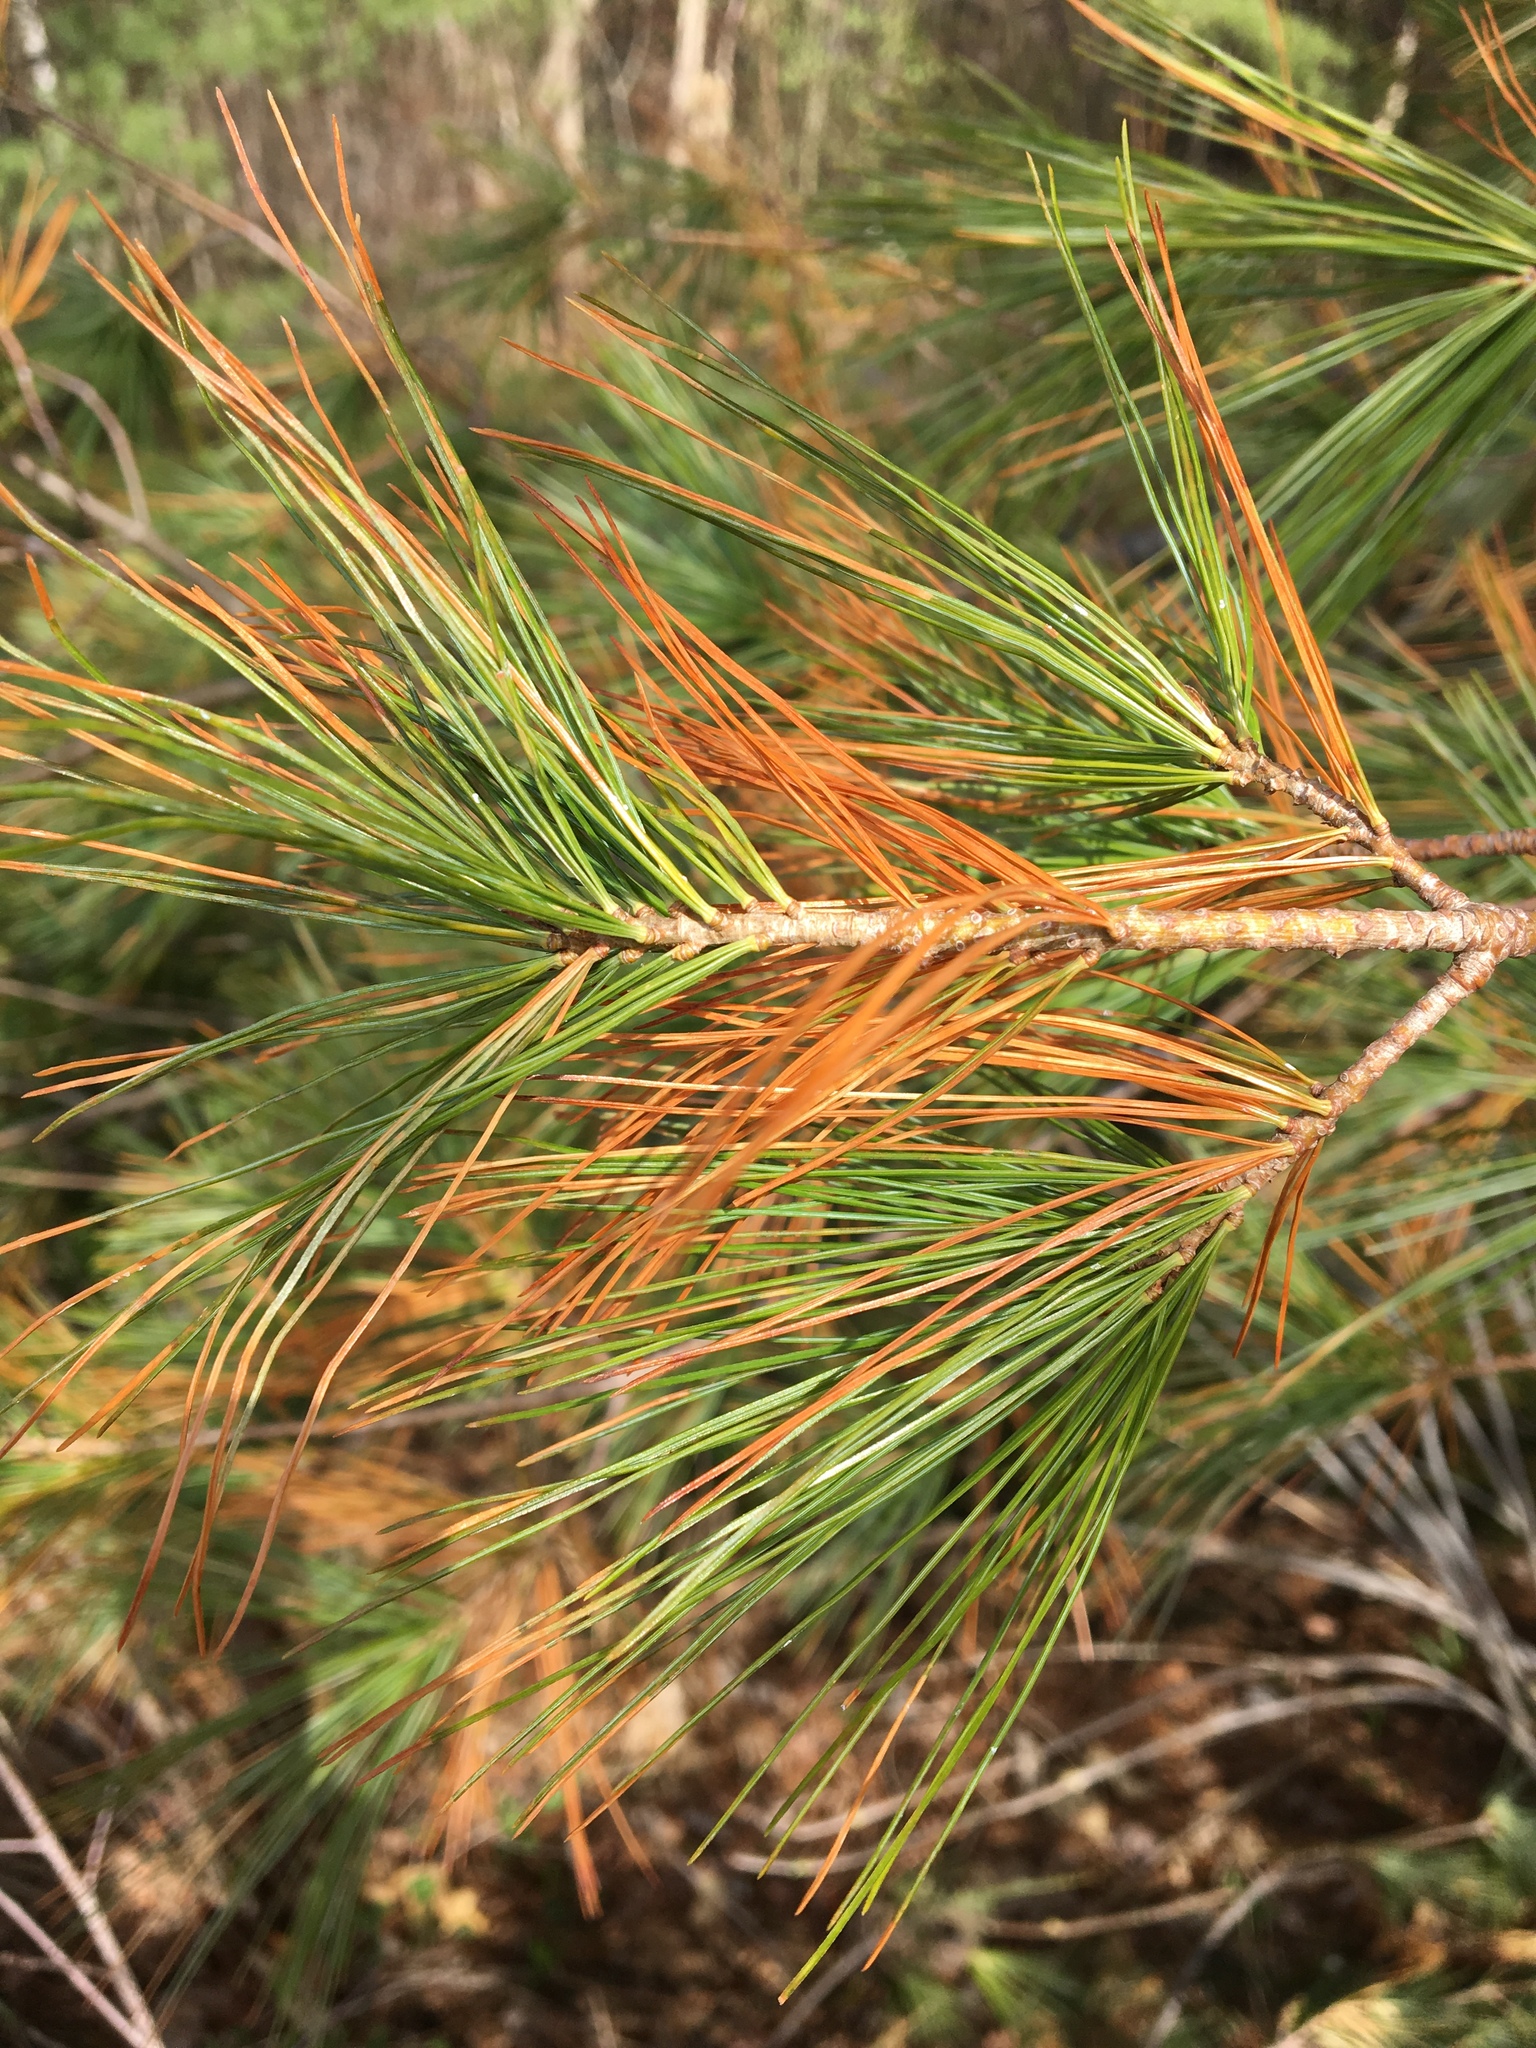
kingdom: Plantae
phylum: Tracheophyta
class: Pinopsida
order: Pinales
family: Pinaceae
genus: Pinus
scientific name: Pinus strobus
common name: Weymouth pine
